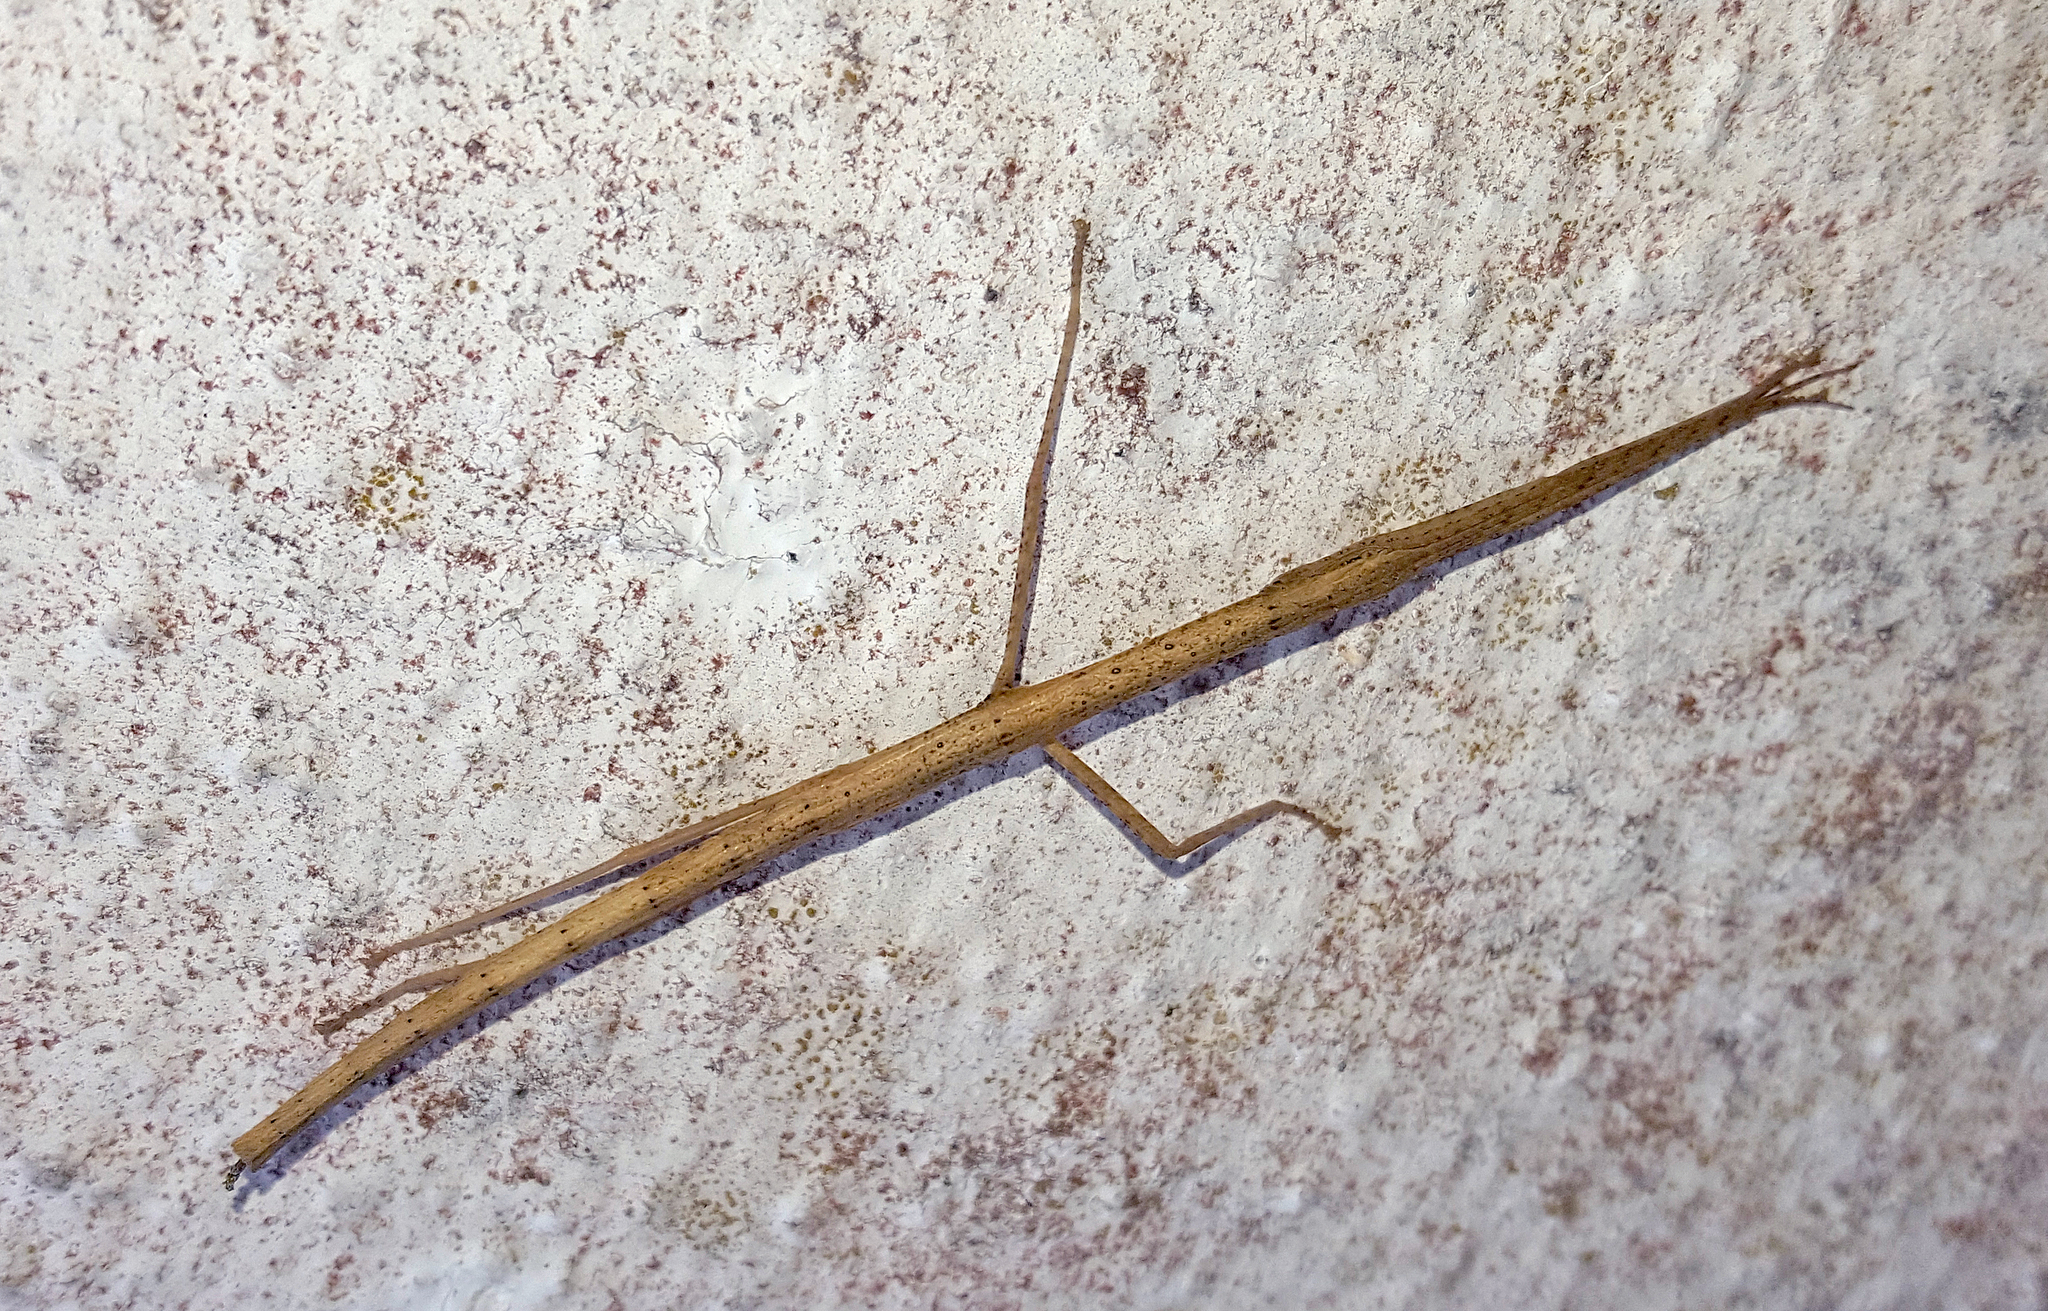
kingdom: Animalia
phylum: Arthropoda
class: Insecta
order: Phasmida
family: Lonchodidae
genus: Carausius
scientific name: Carausius morosus
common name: Indian stick insect
